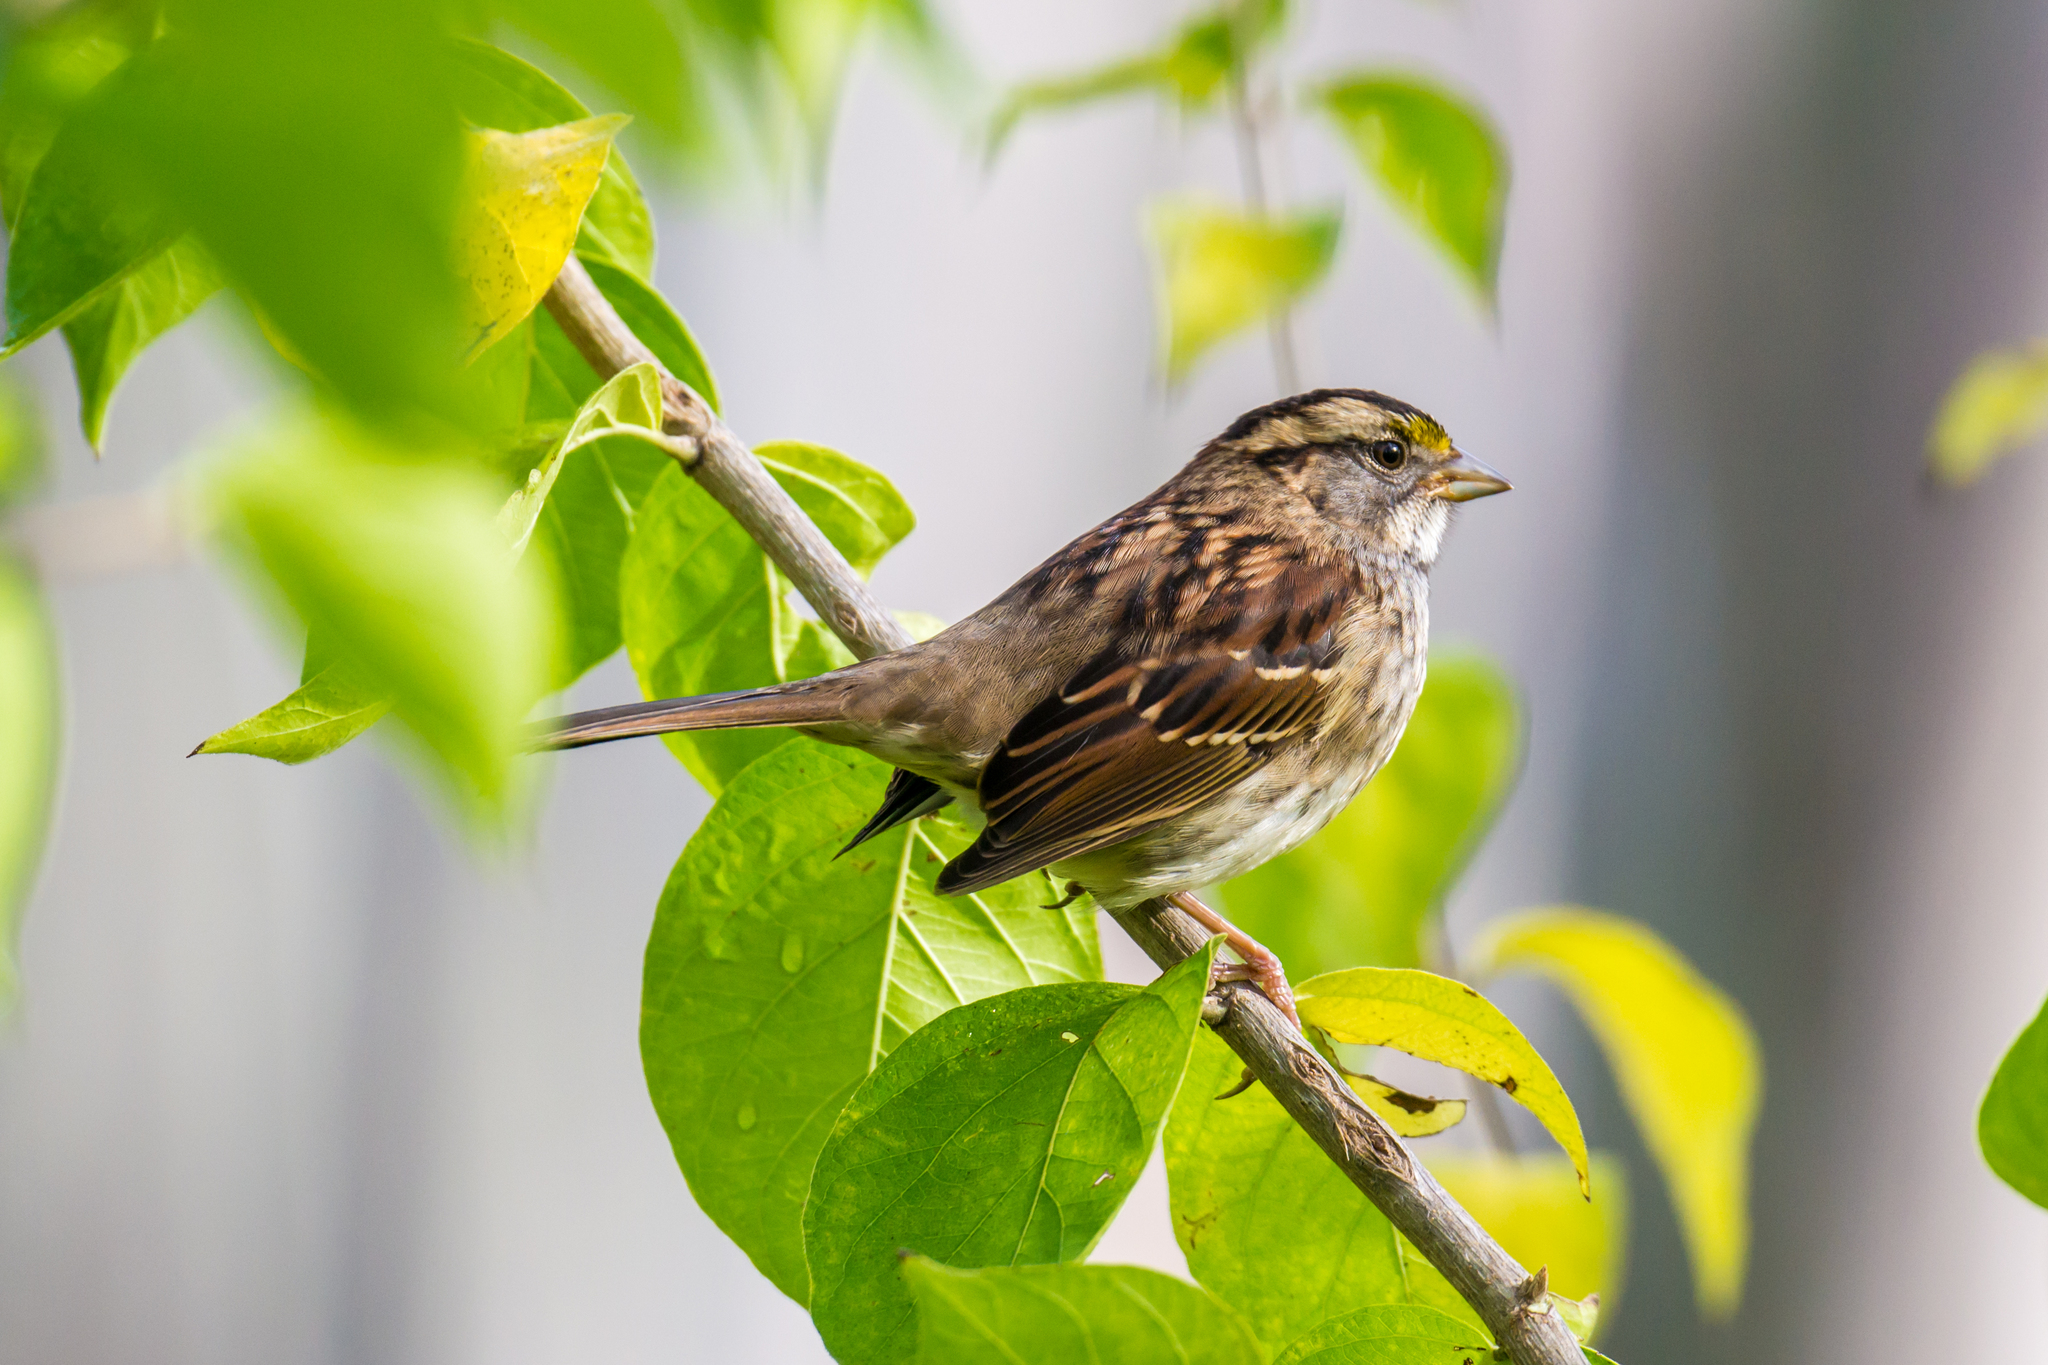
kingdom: Animalia
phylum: Chordata
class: Aves
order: Passeriformes
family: Passerellidae
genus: Zonotrichia
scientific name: Zonotrichia albicollis
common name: White-throated sparrow
